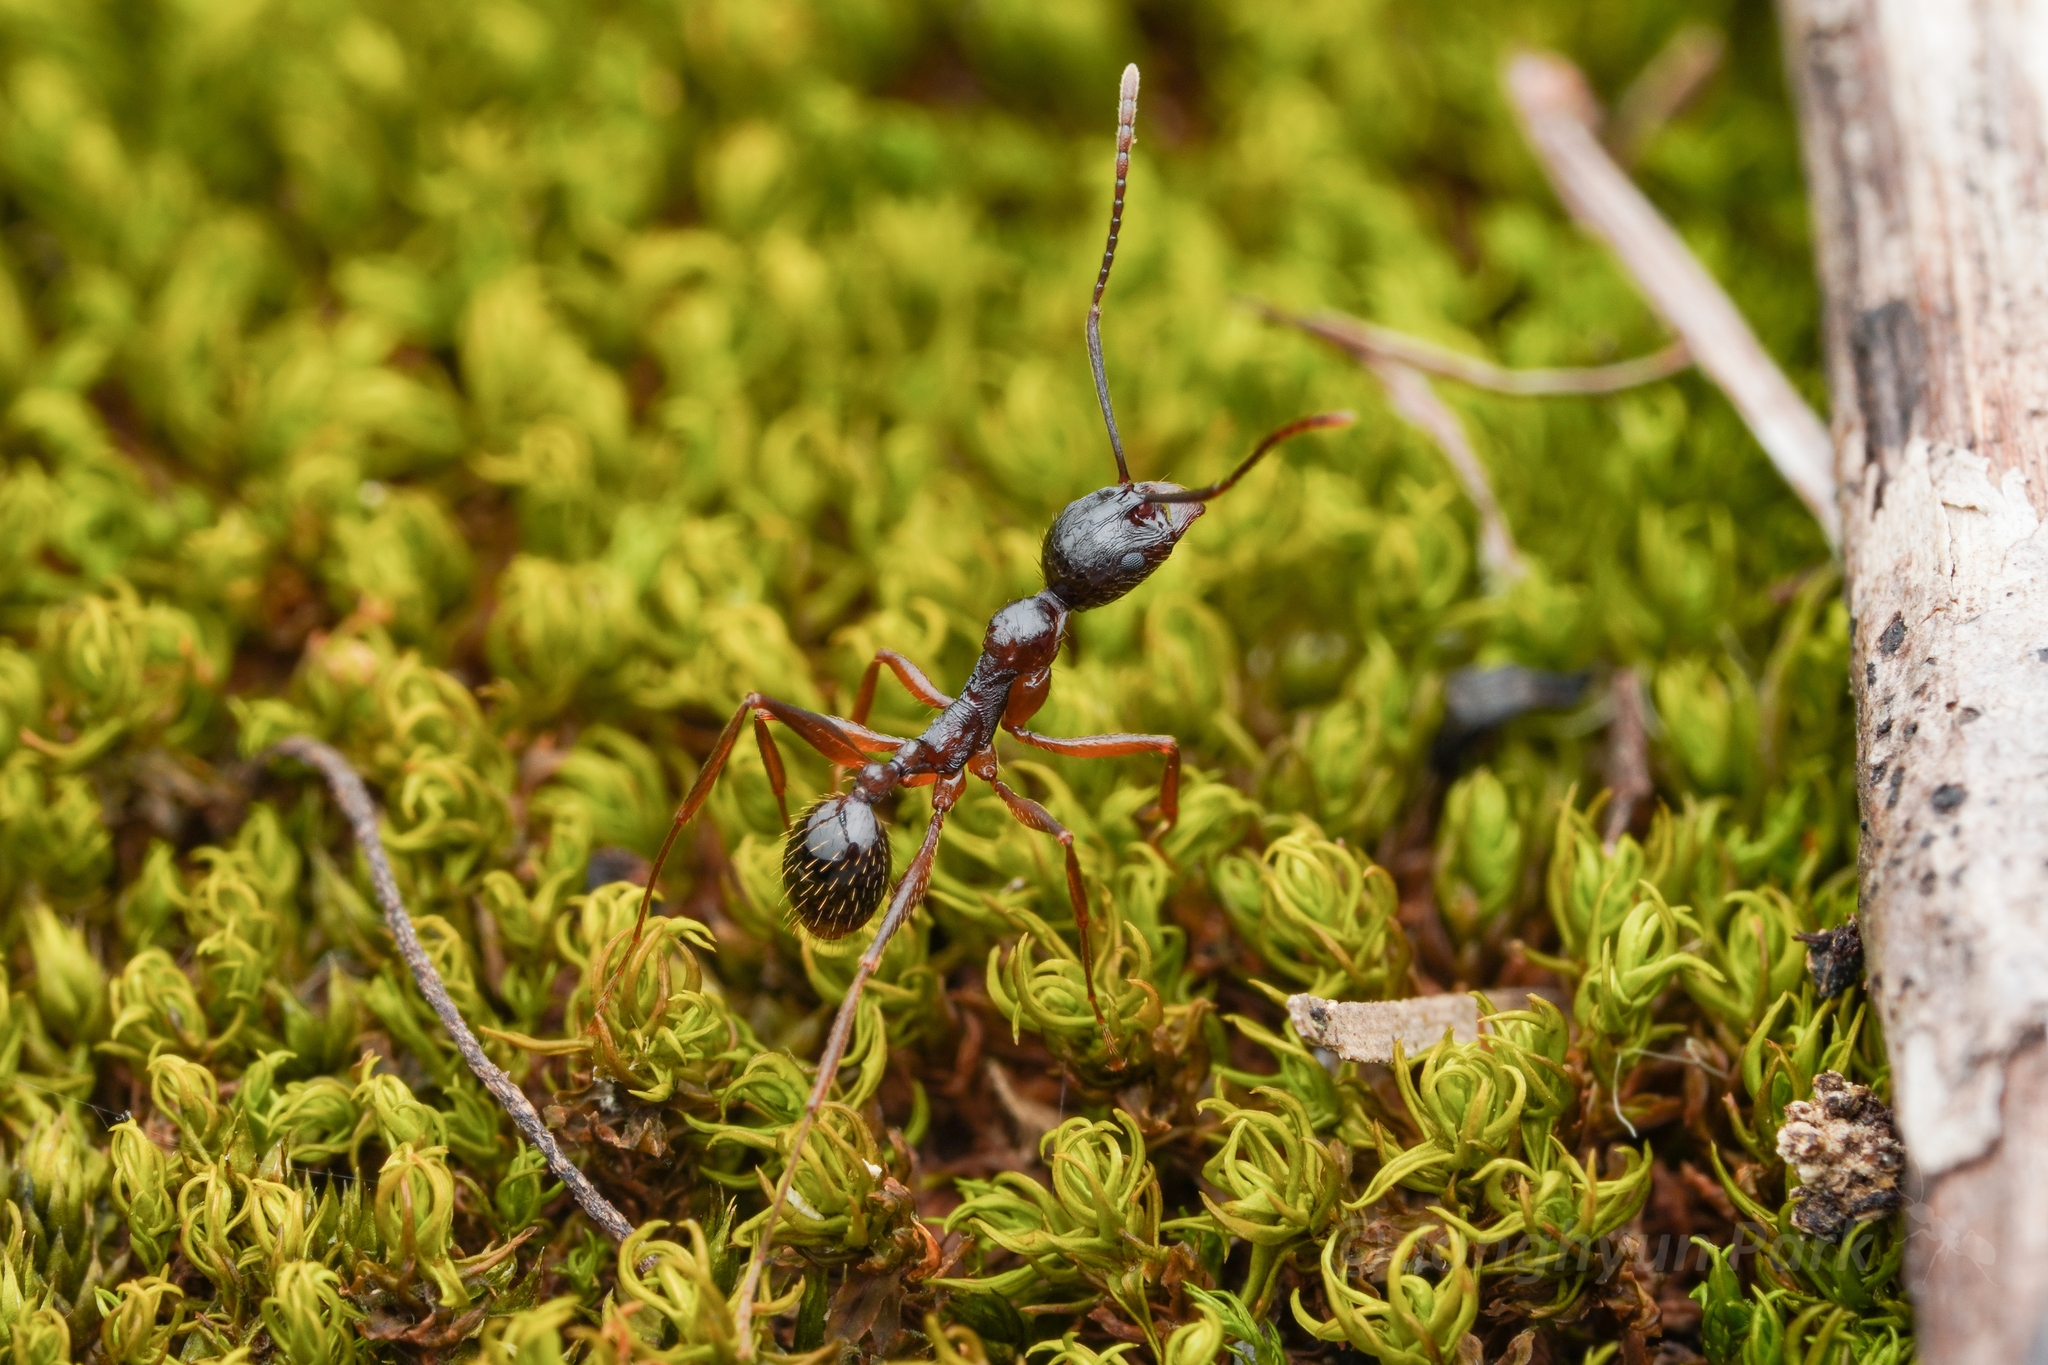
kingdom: Animalia
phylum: Arthropoda
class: Insecta
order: Hymenoptera
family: Formicidae
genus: Aphaenogaster
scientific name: Aphaenogaster famelica
